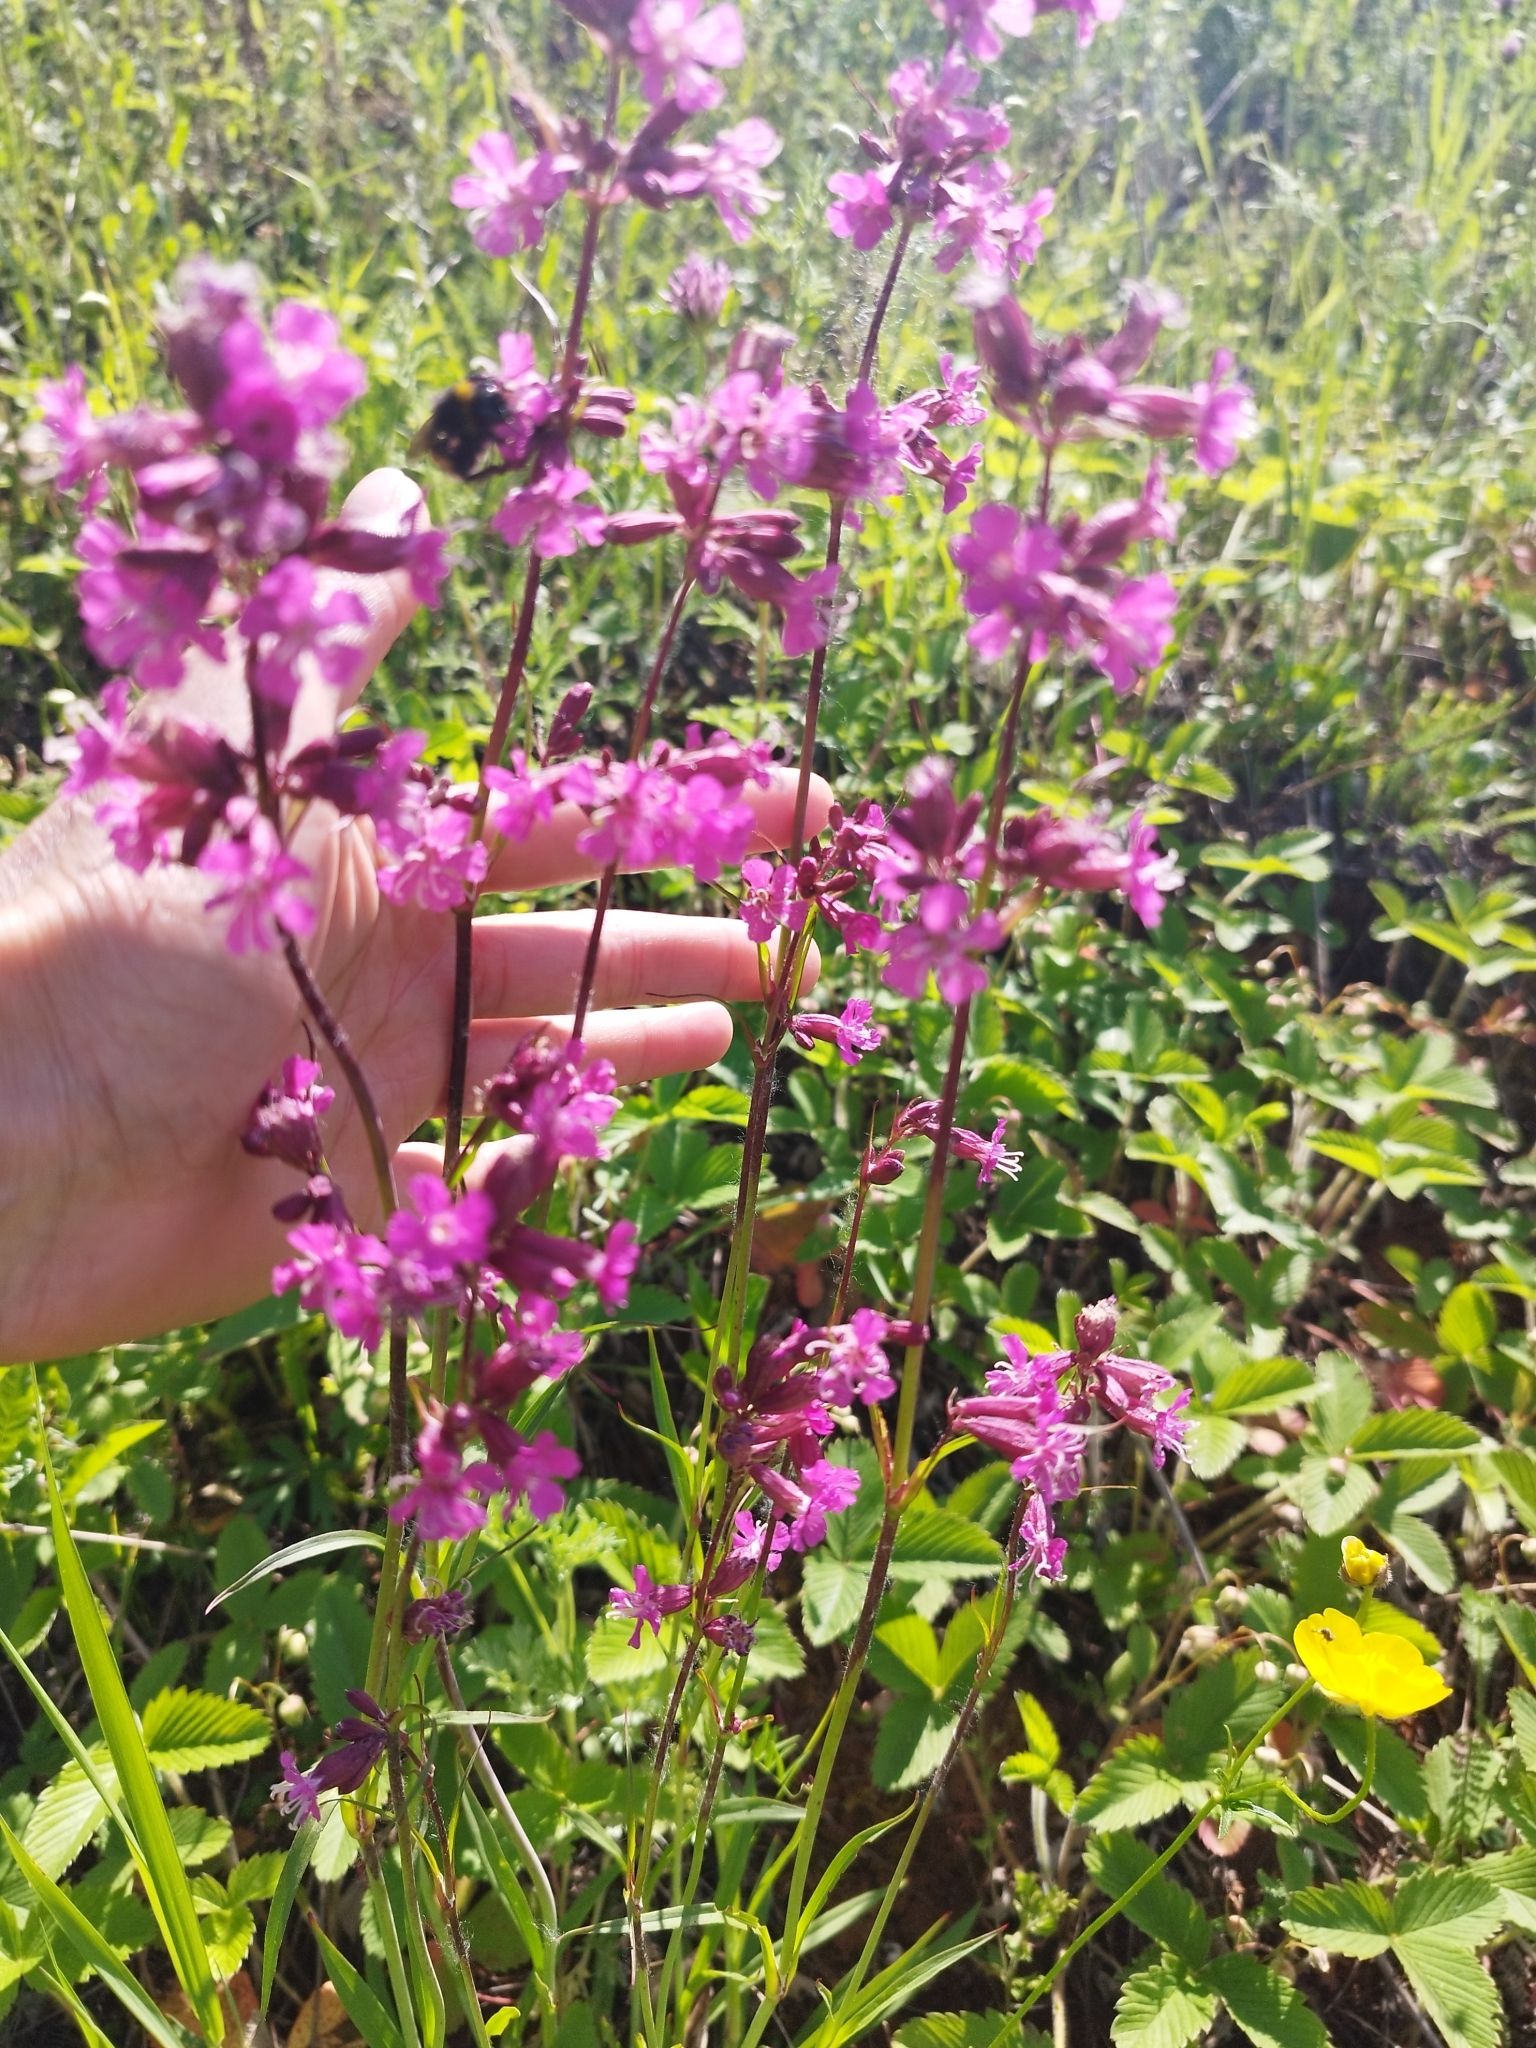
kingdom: Plantae
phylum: Tracheophyta
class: Magnoliopsida
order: Caryophyllales
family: Caryophyllaceae
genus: Viscaria
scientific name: Viscaria vulgaris
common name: Clammy campion
